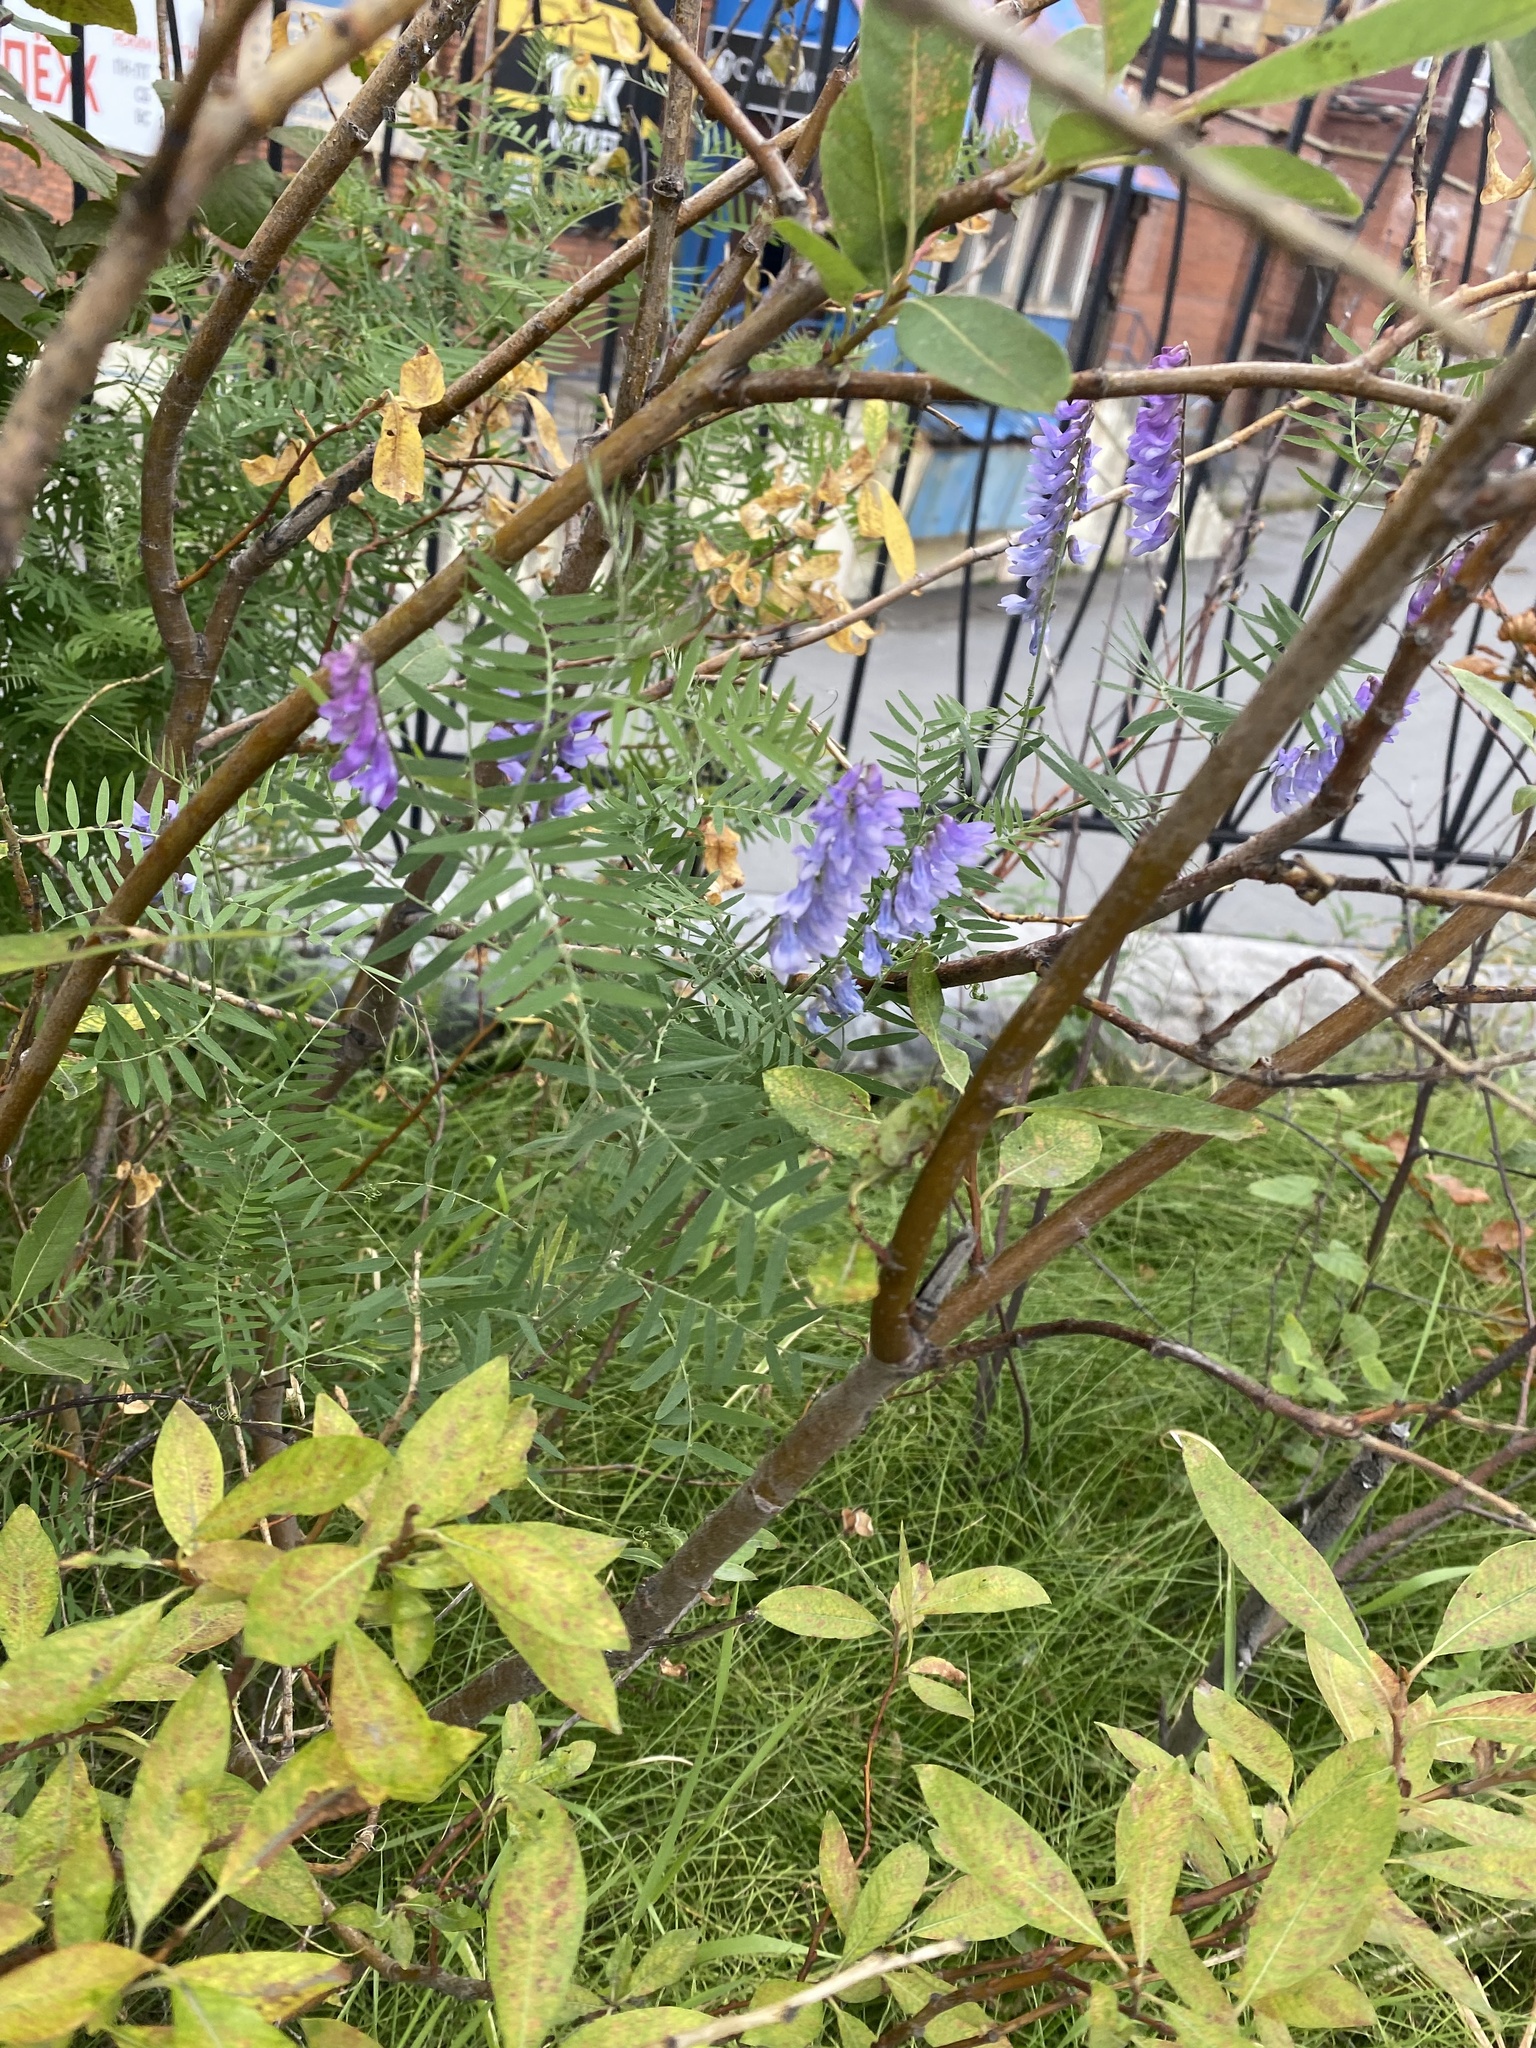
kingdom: Plantae
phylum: Tracheophyta
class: Magnoliopsida
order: Fabales
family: Fabaceae
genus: Vicia
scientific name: Vicia cracca
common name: Bird vetch
